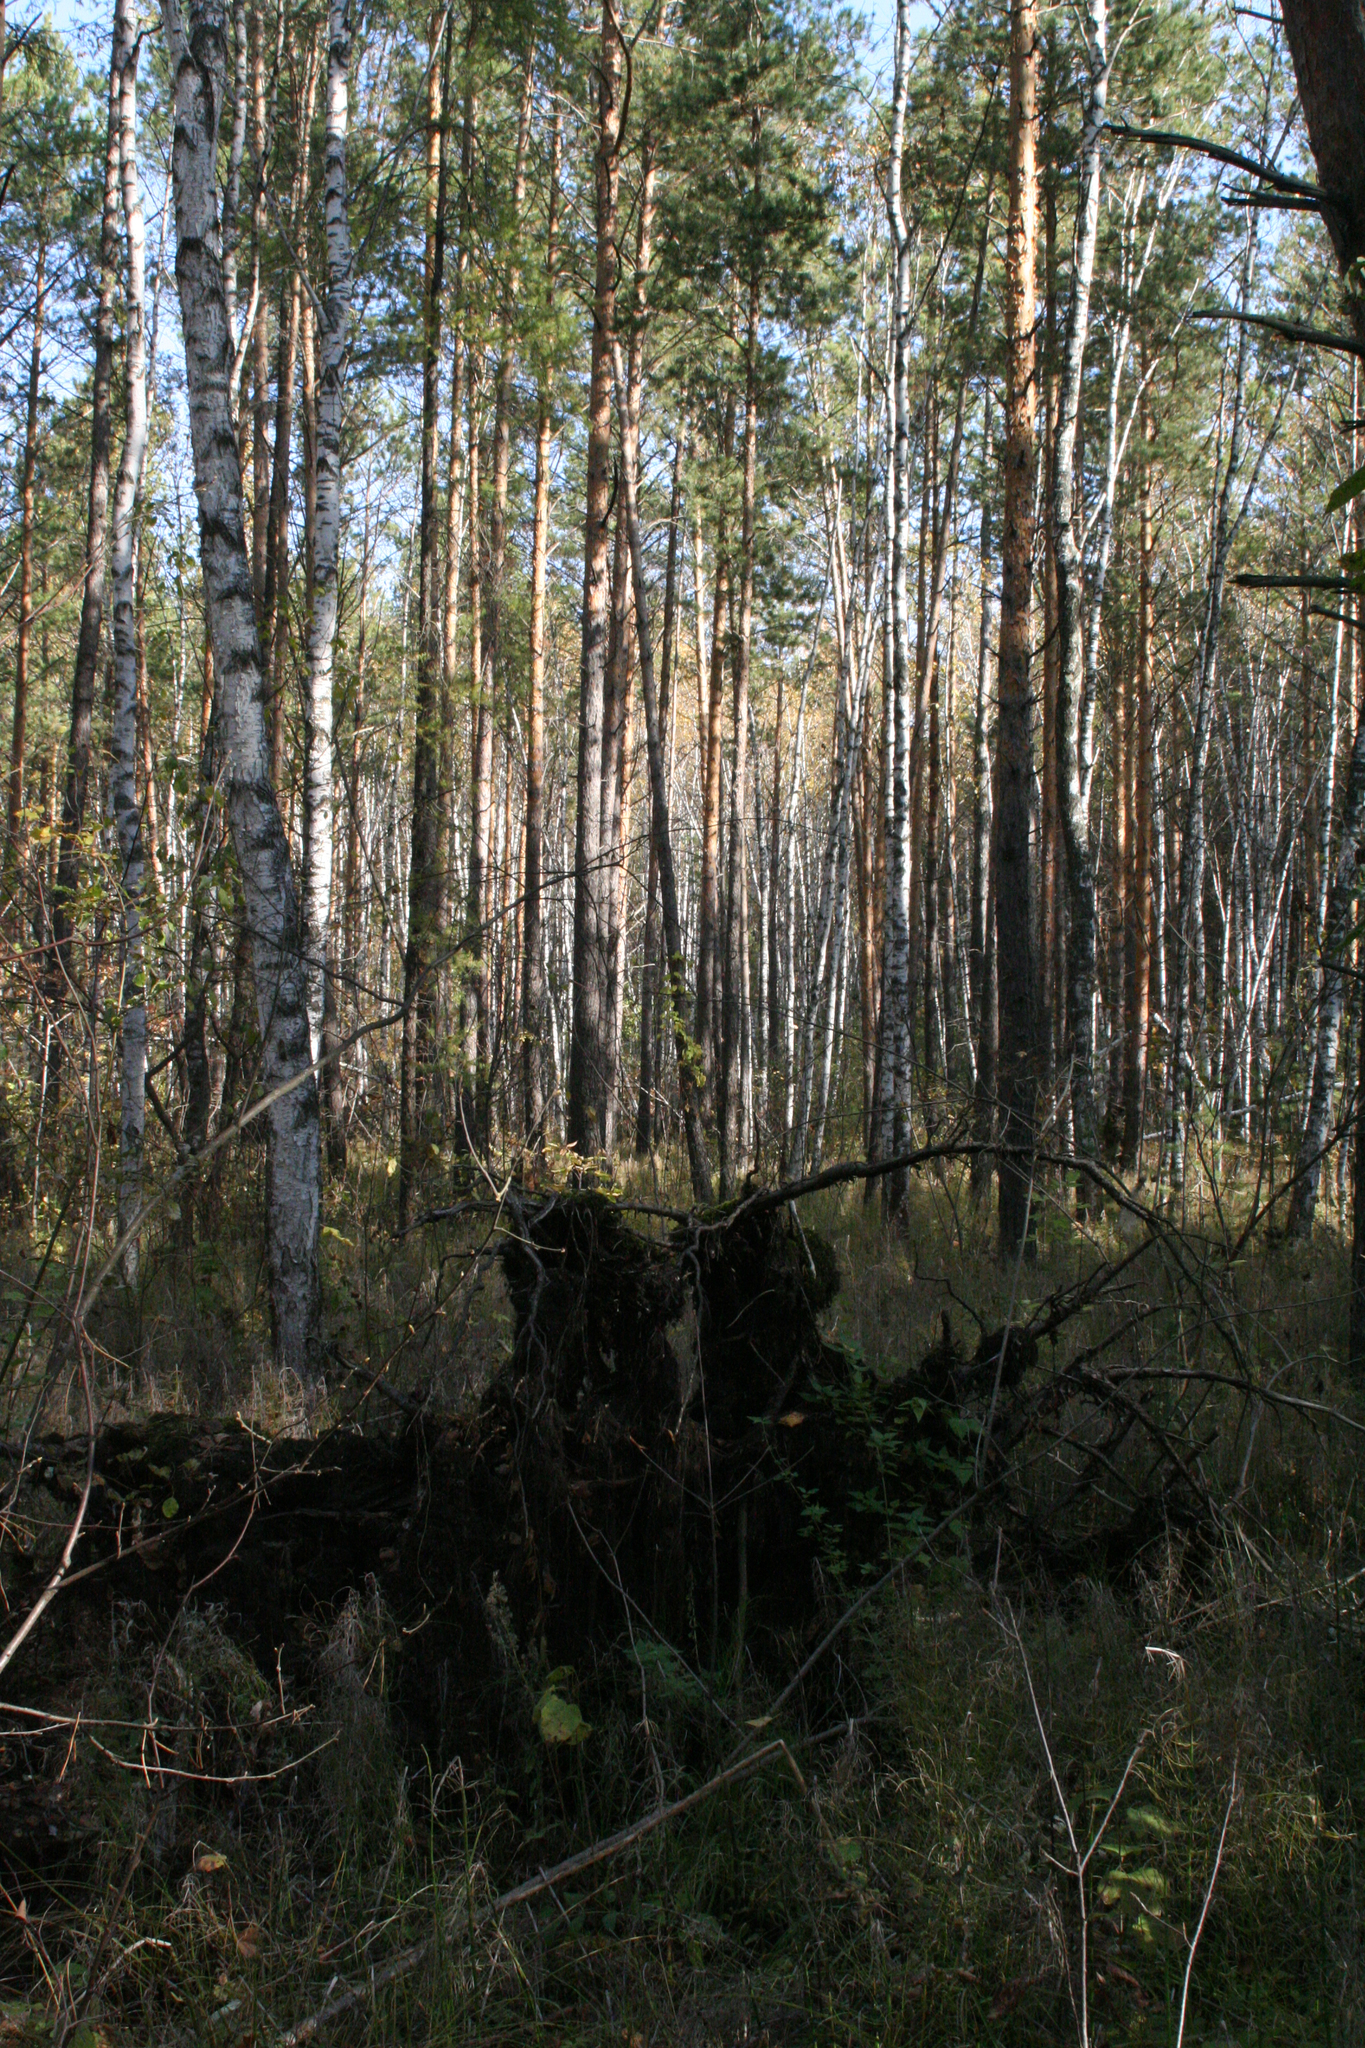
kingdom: Plantae
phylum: Tracheophyta
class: Pinopsida
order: Pinales
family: Pinaceae
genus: Pinus
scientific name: Pinus sylvestris
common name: Scots pine
